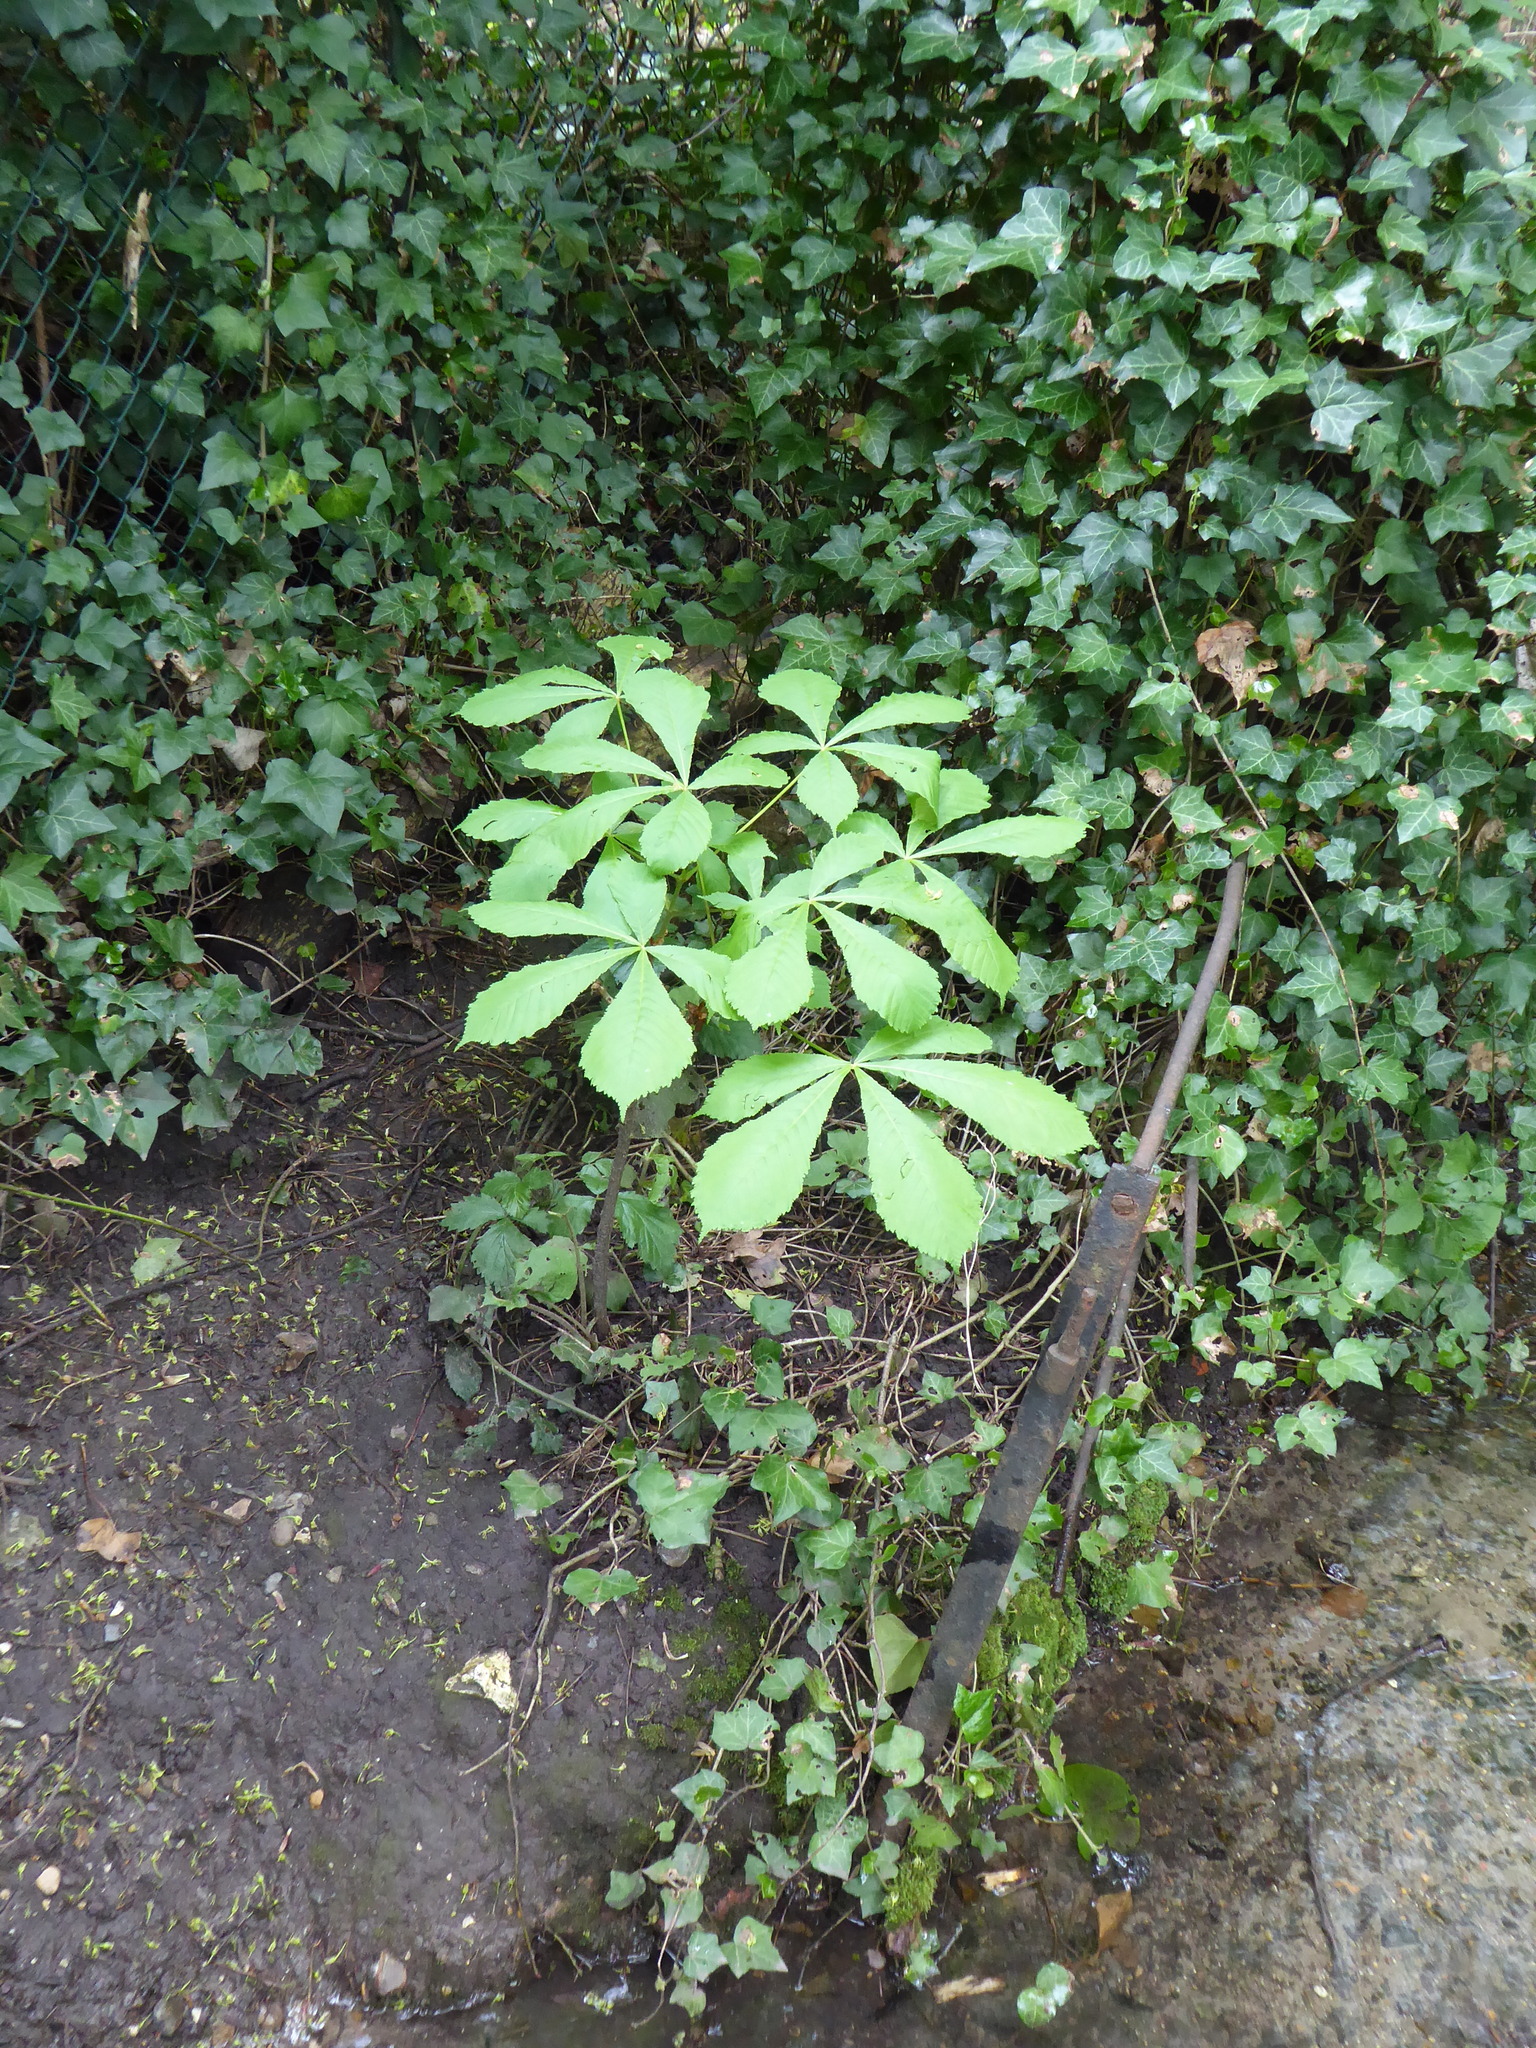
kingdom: Plantae
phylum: Tracheophyta
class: Magnoliopsida
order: Sapindales
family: Sapindaceae
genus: Aesculus
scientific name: Aesculus hippocastanum
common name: Horse-chestnut
